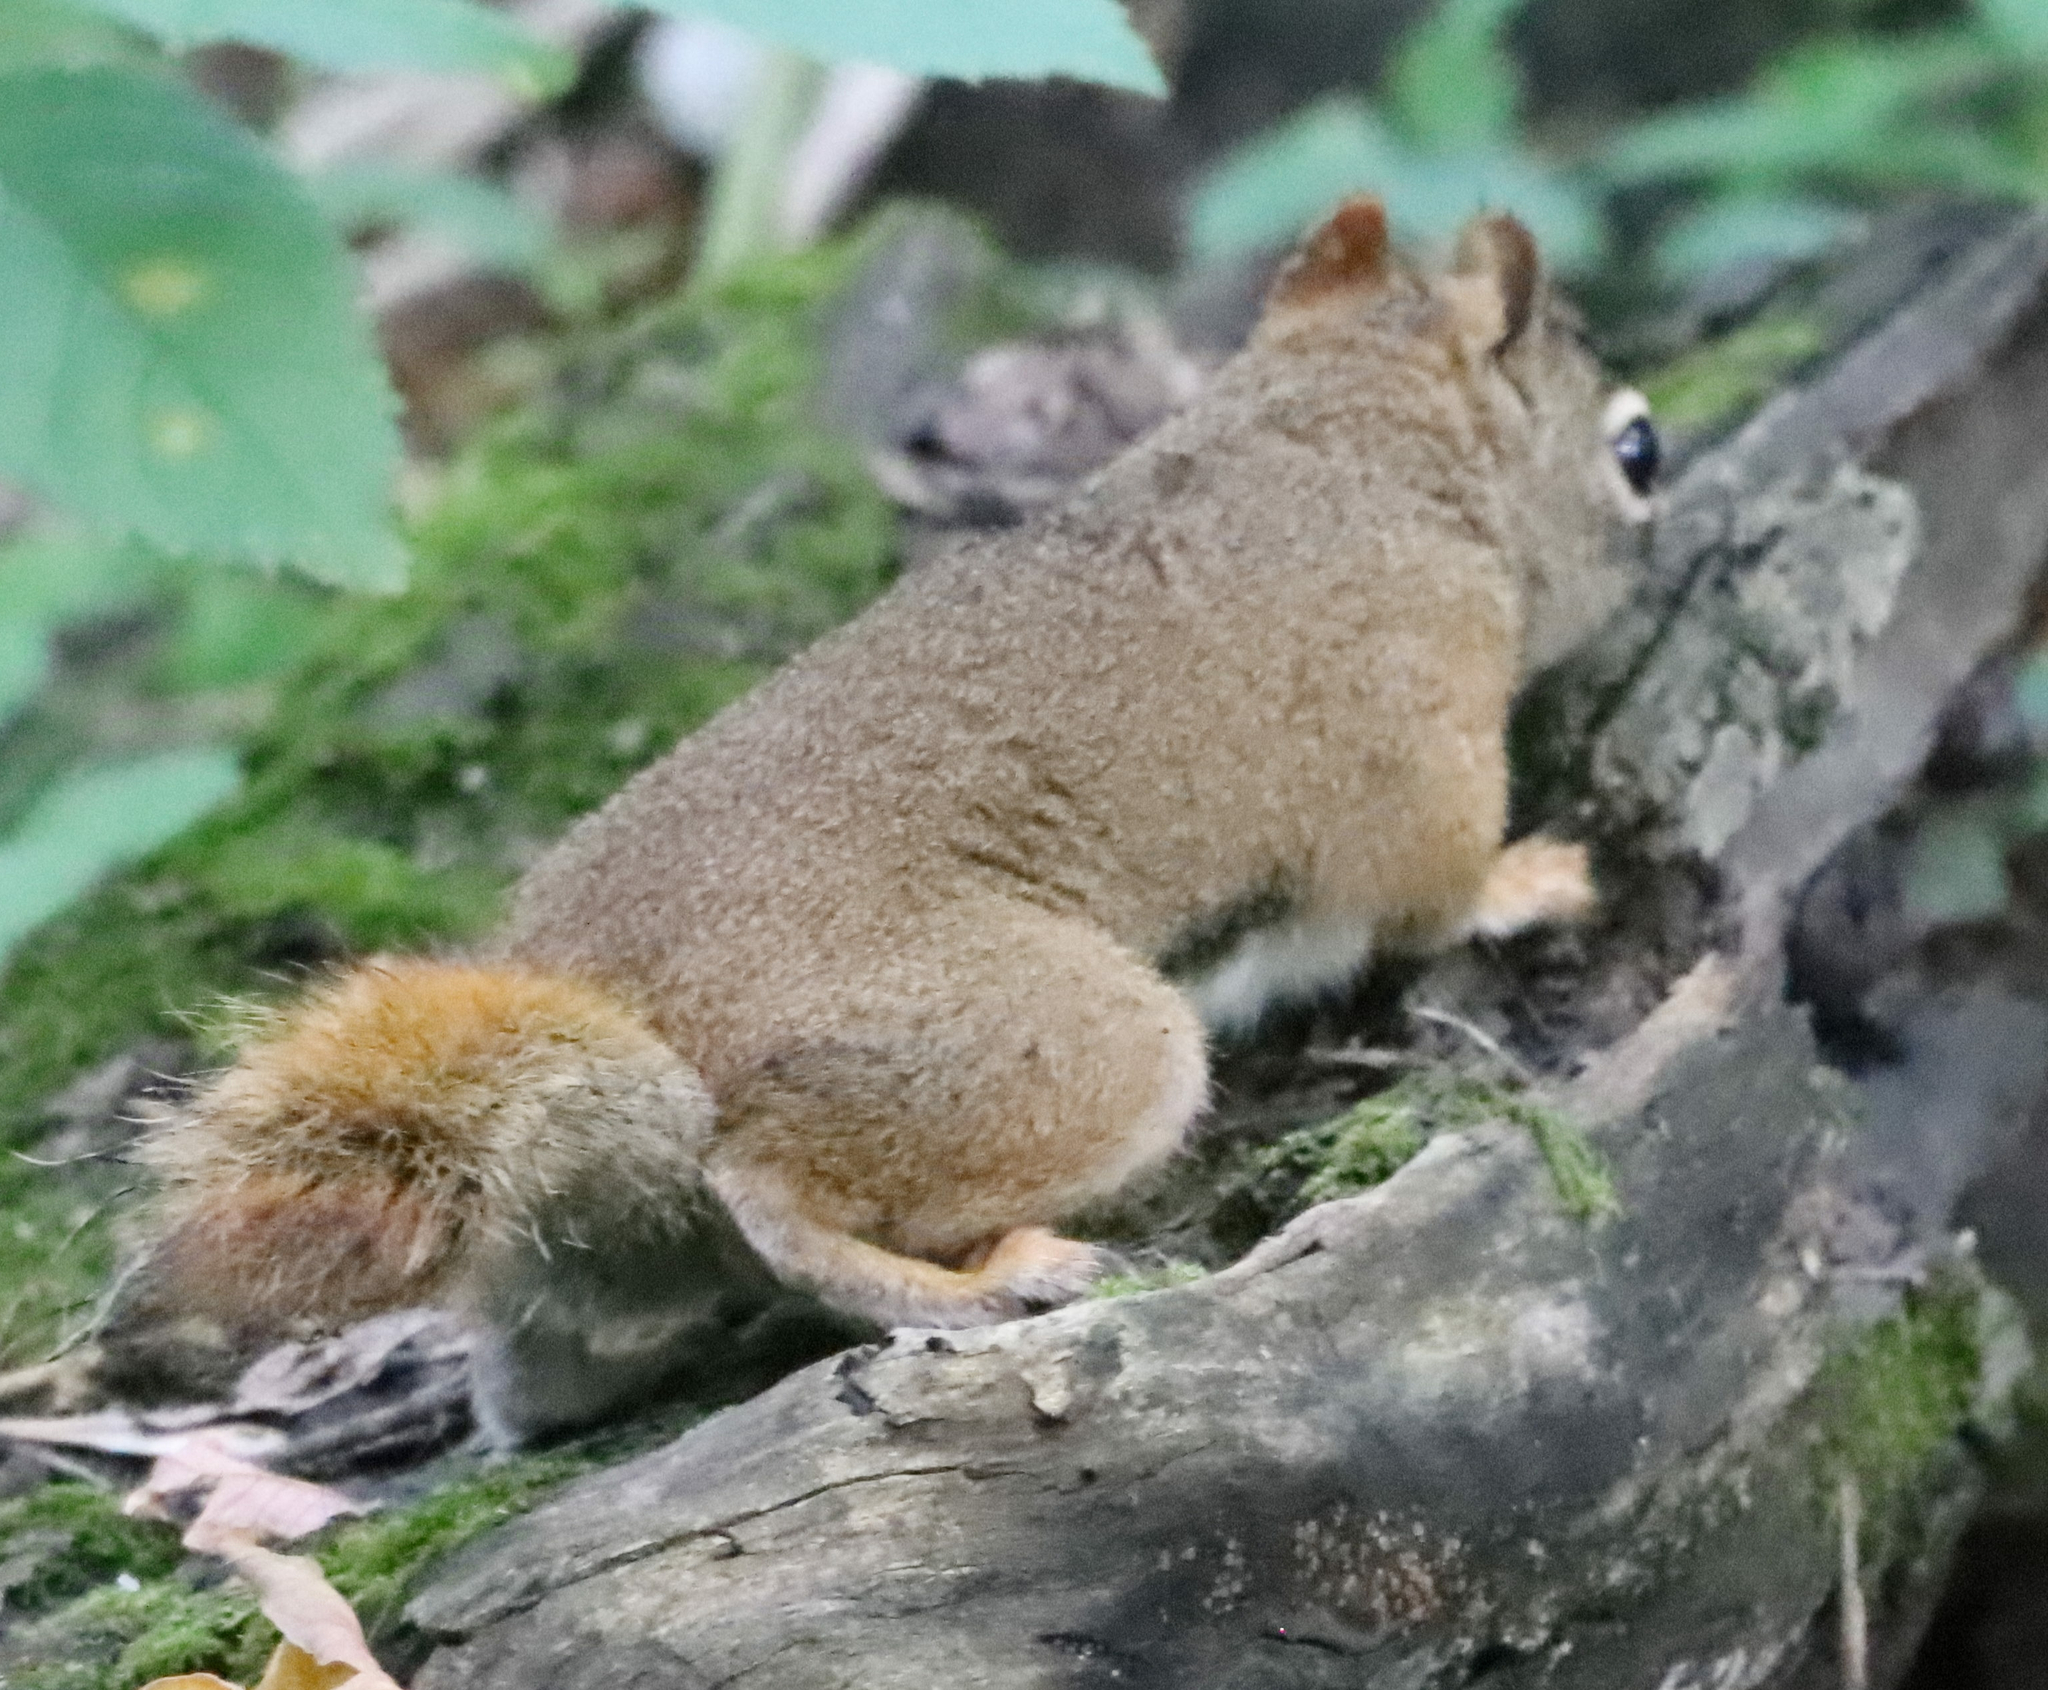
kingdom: Animalia
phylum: Chordata
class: Mammalia
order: Rodentia
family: Sciuridae
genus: Tamiasciurus
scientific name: Tamiasciurus hudsonicus
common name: Red squirrel
